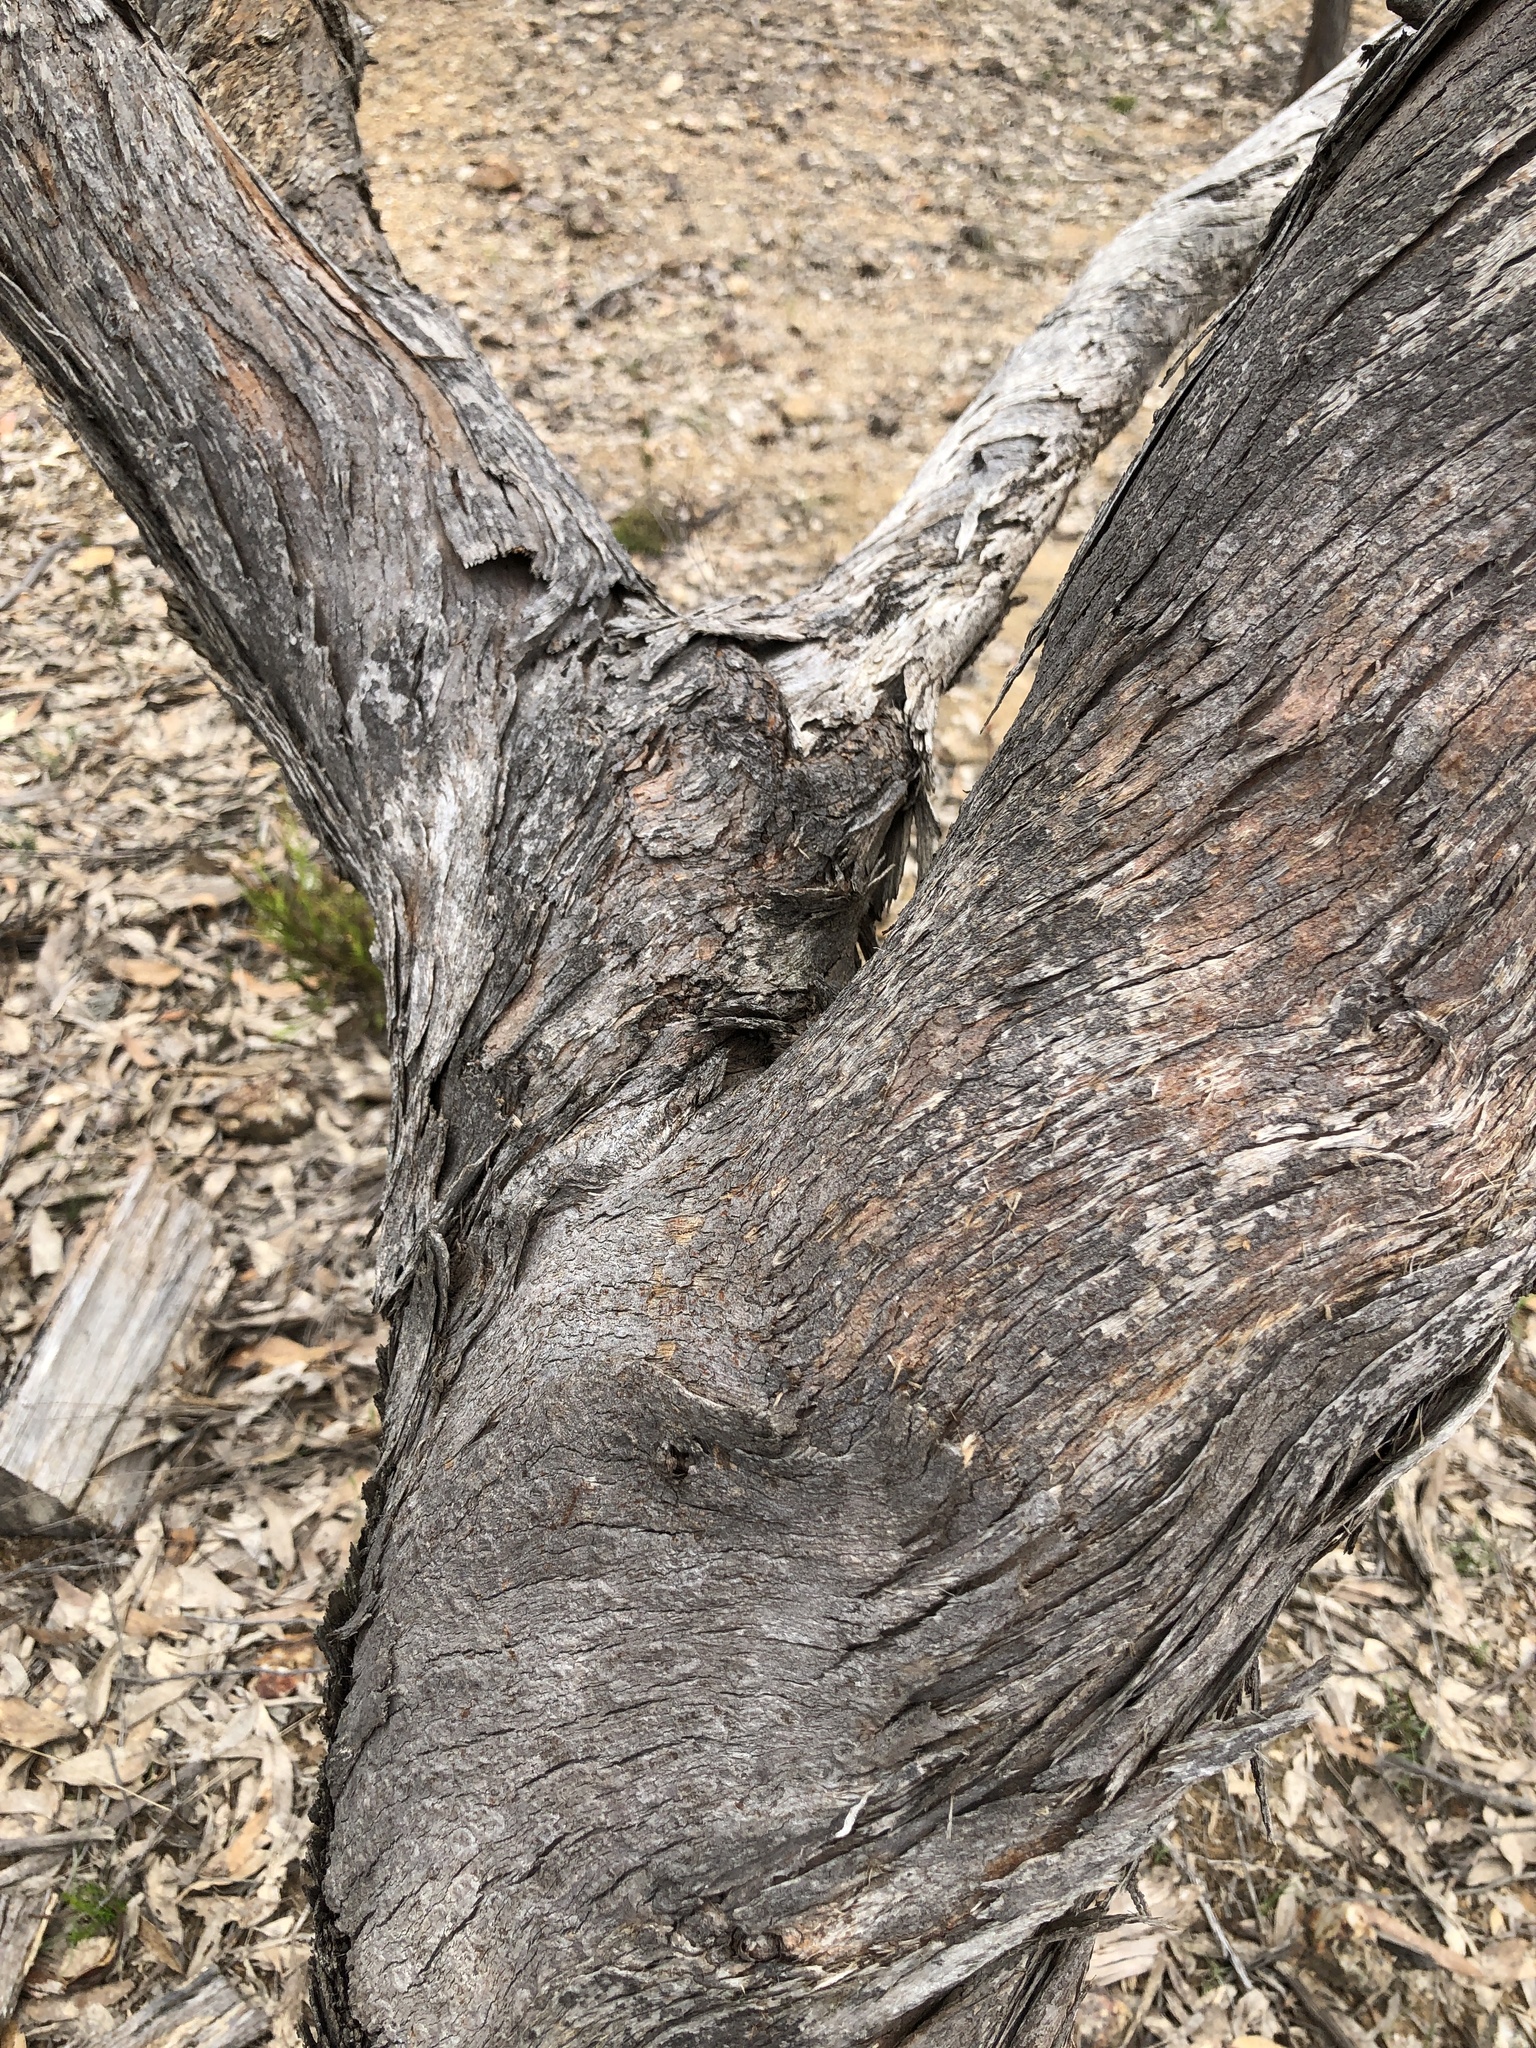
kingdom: Plantae
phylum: Tracheophyta
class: Magnoliopsida
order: Myrtales
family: Myrtaceae
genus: Eucalyptus
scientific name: Eucalyptus obliqua
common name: Messmate stringybark
